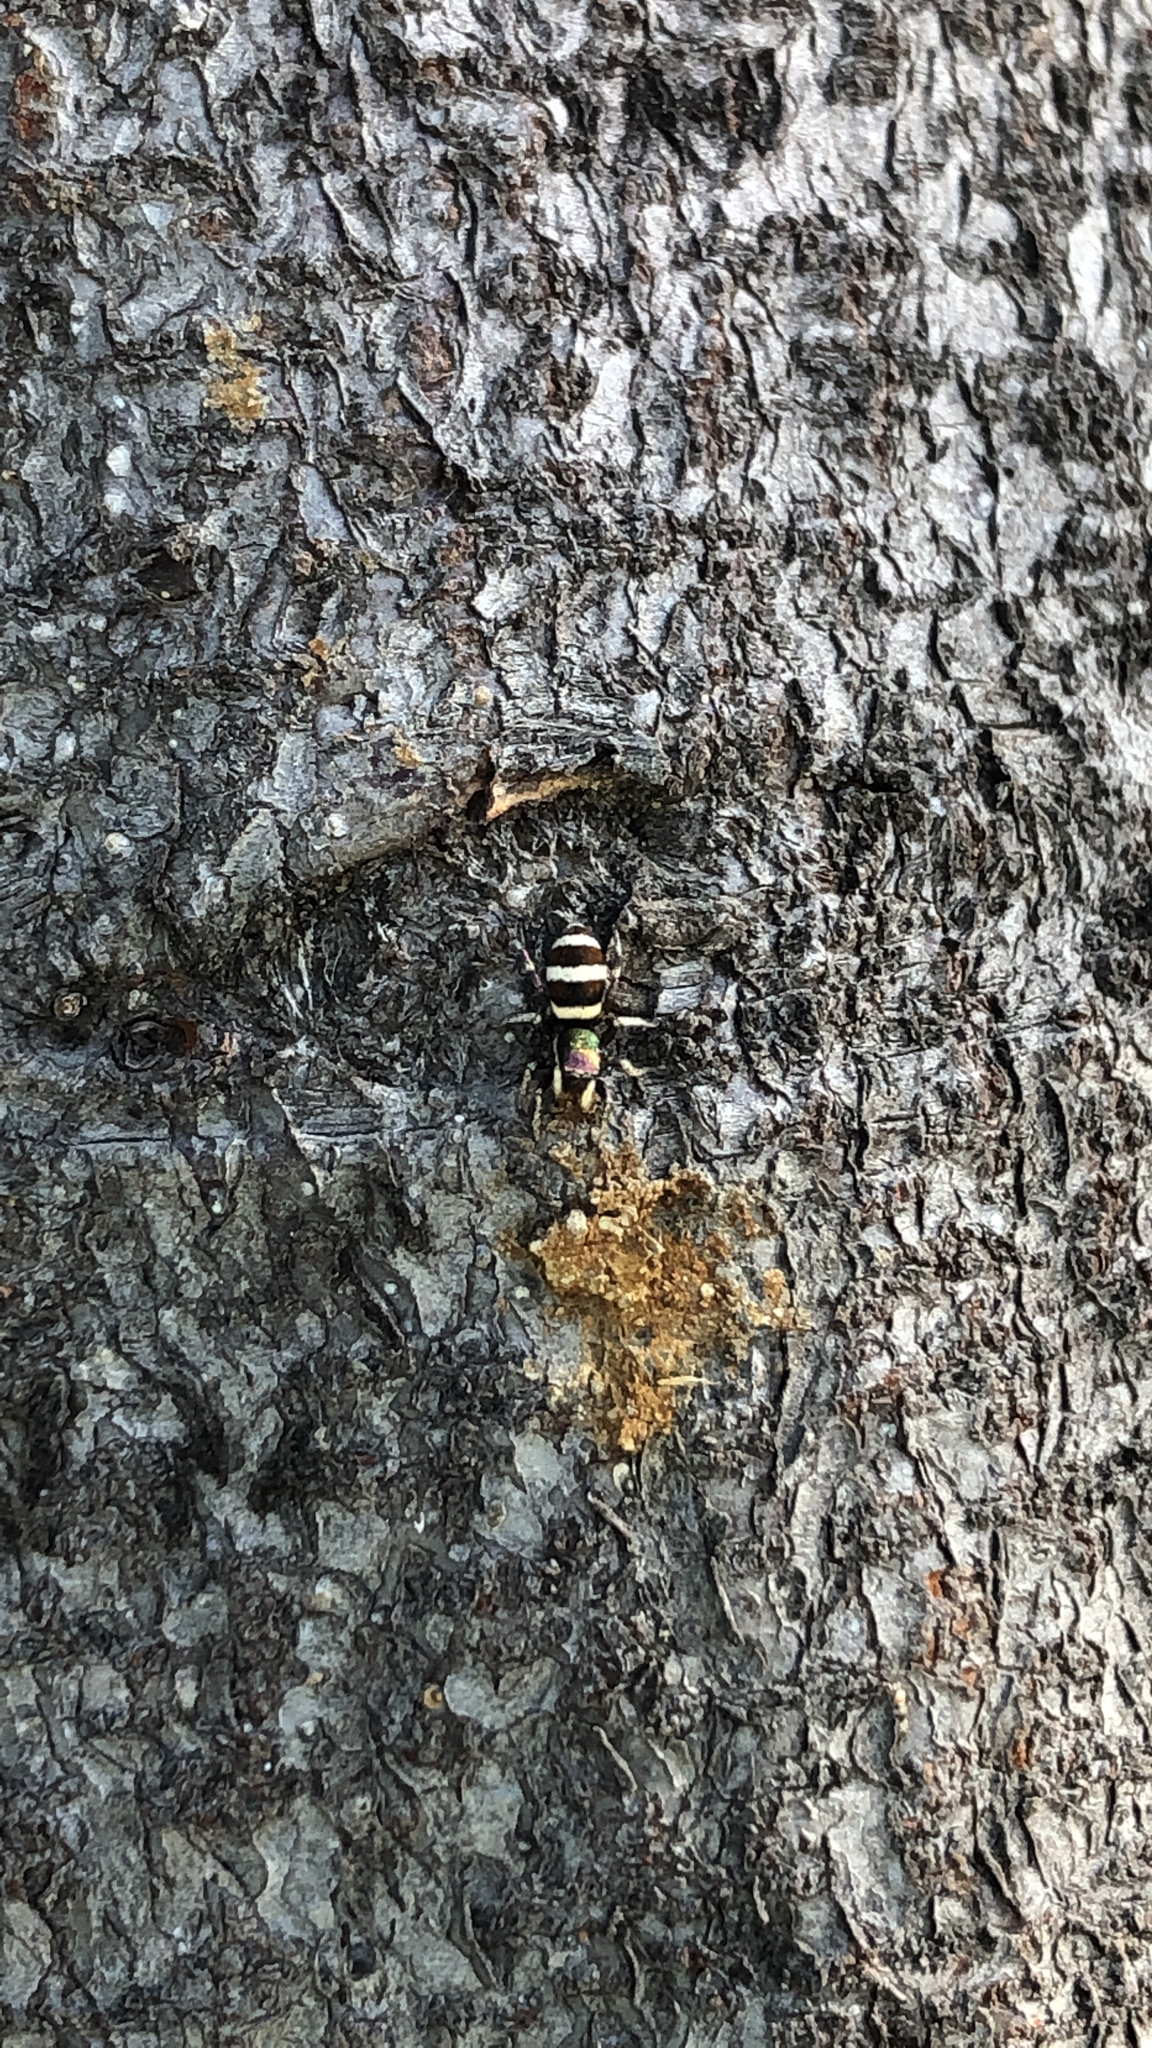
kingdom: Animalia
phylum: Arthropoda
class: Arachnida
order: Araneae
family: Salticidae
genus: Salticus
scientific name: Salticus palpalis
